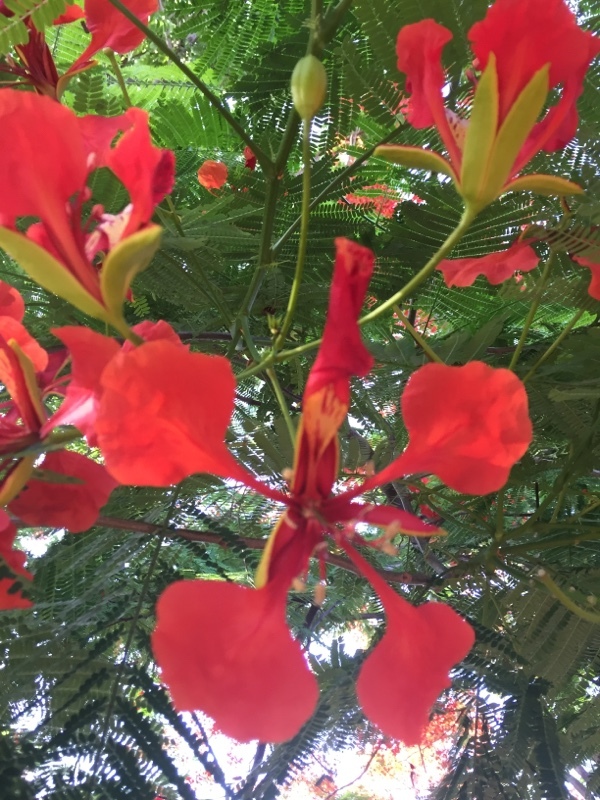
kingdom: Plantae
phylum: Tracheophyta
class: Magnoliopsida
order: Fabales
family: Fabaceae
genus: Delonix
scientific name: Delonix regia
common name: Royal poinciana
